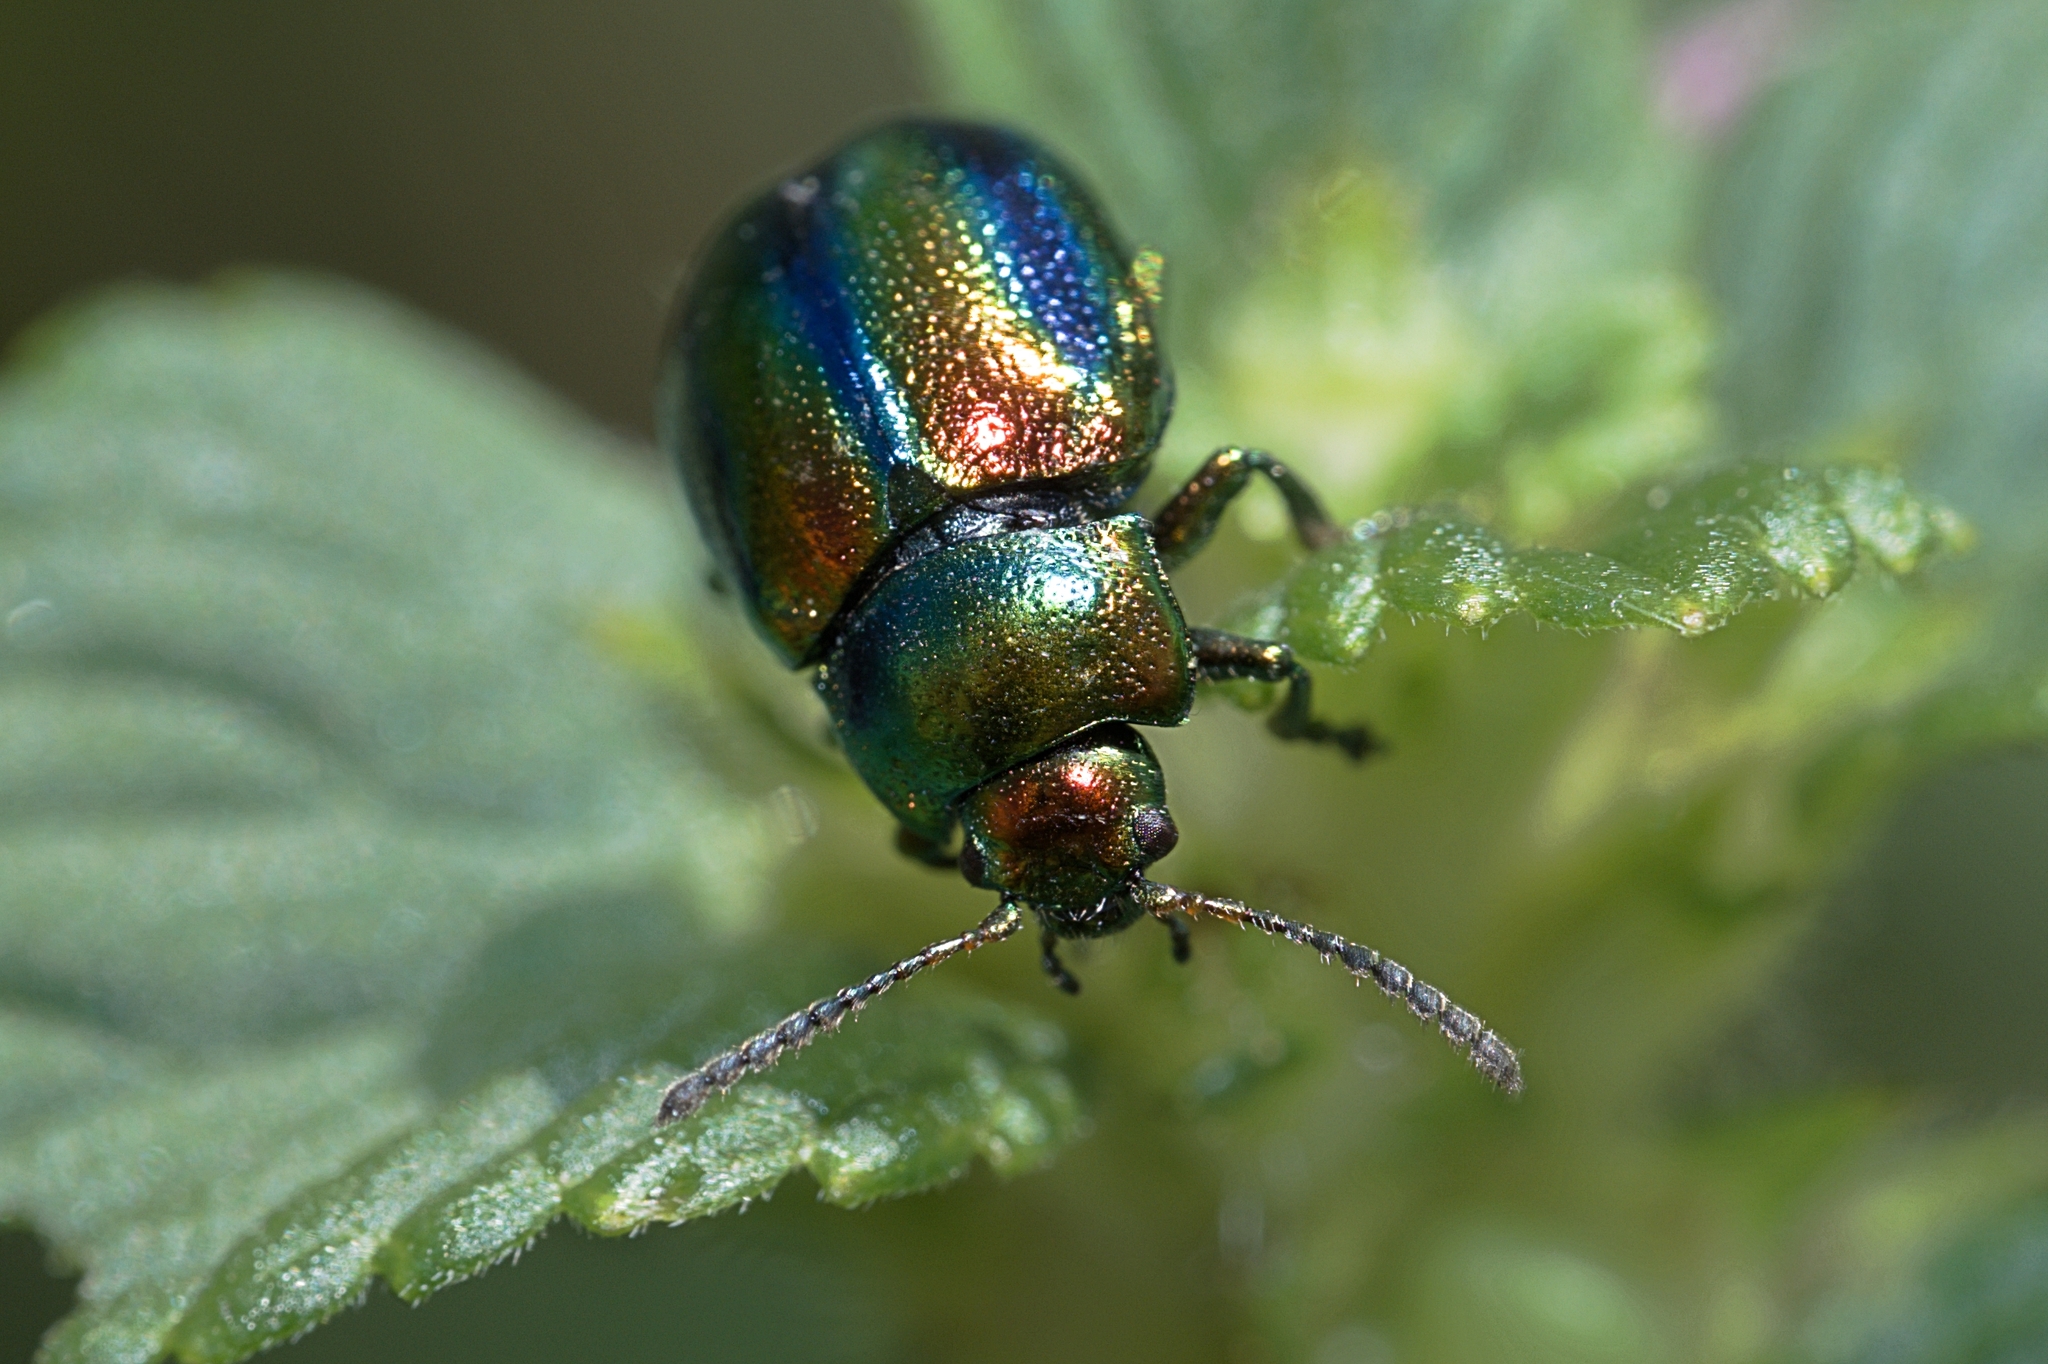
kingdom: Animalia
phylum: Arthropoda
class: Insecta
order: Coleoptera
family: Chrysomelidae
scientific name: Chrysomelidae
